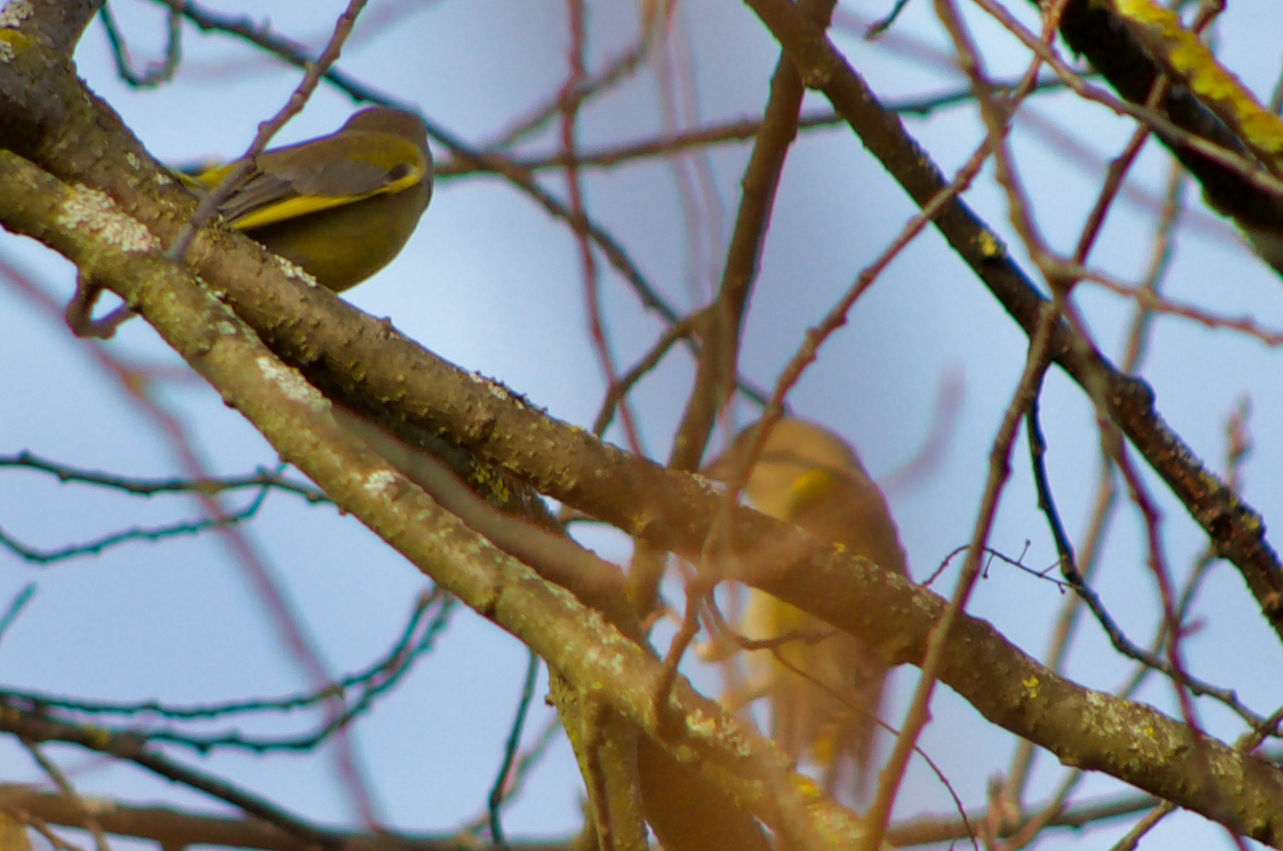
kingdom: Plantae
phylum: Tracheophyta
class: Liliopsida
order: Poales
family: Poaceae
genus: Chloris
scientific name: Chloris chloris
